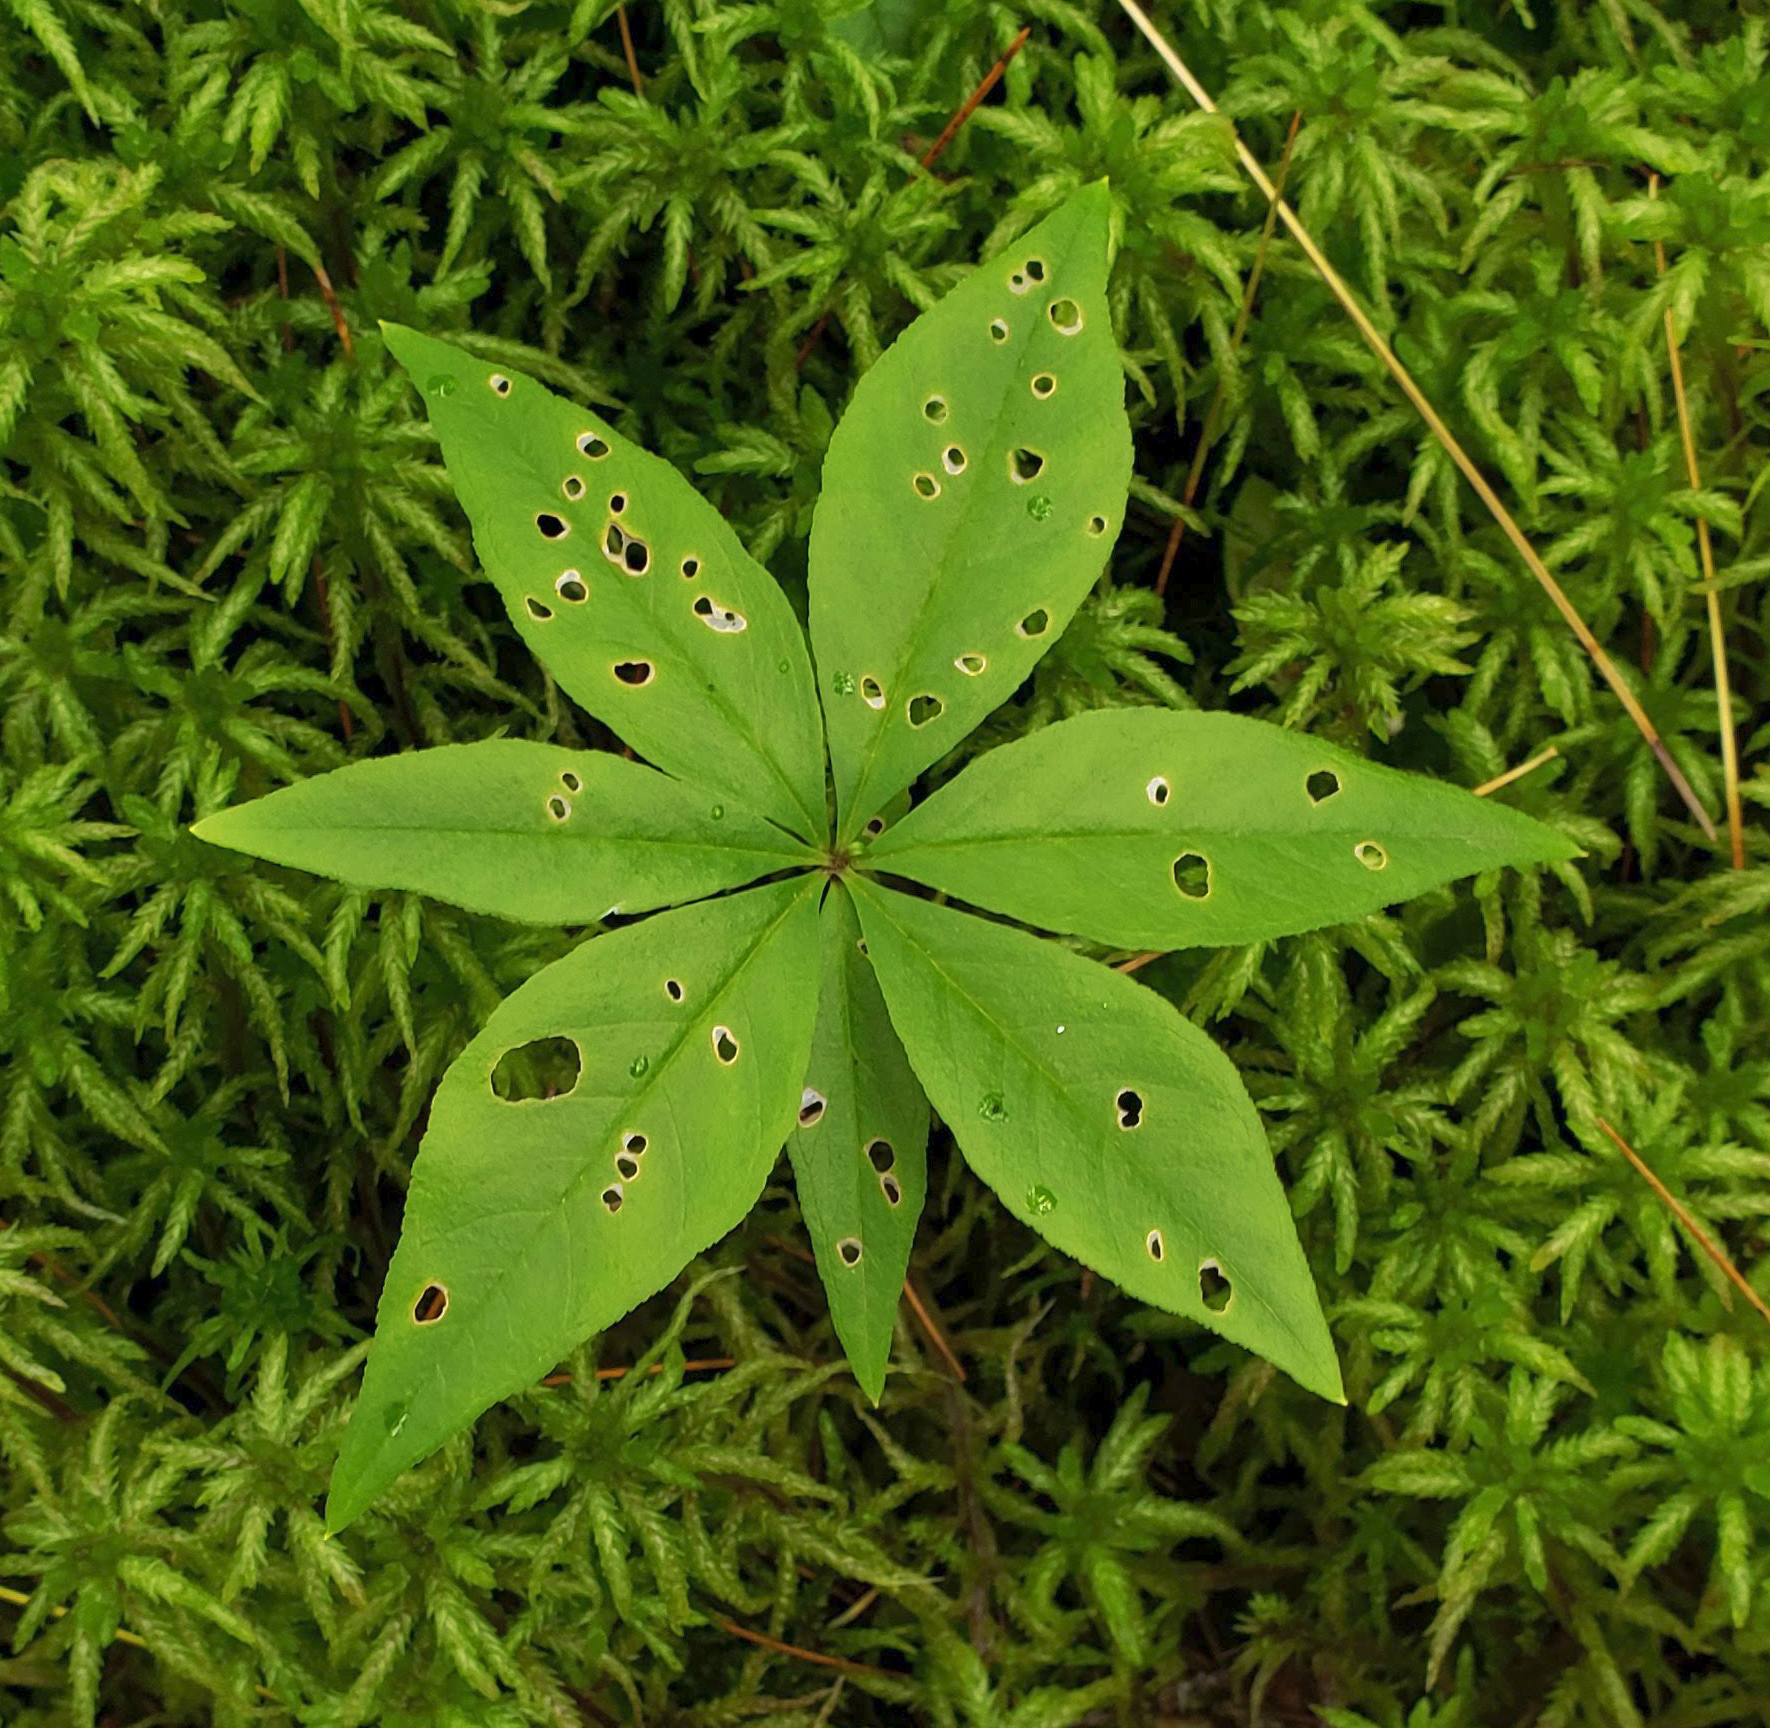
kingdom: Plantae
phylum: Tracheophyta
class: Magnoliopsida
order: Ericales
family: Primulaceae
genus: Lysimachia
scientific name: Lysimachia borealis
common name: American starflower
